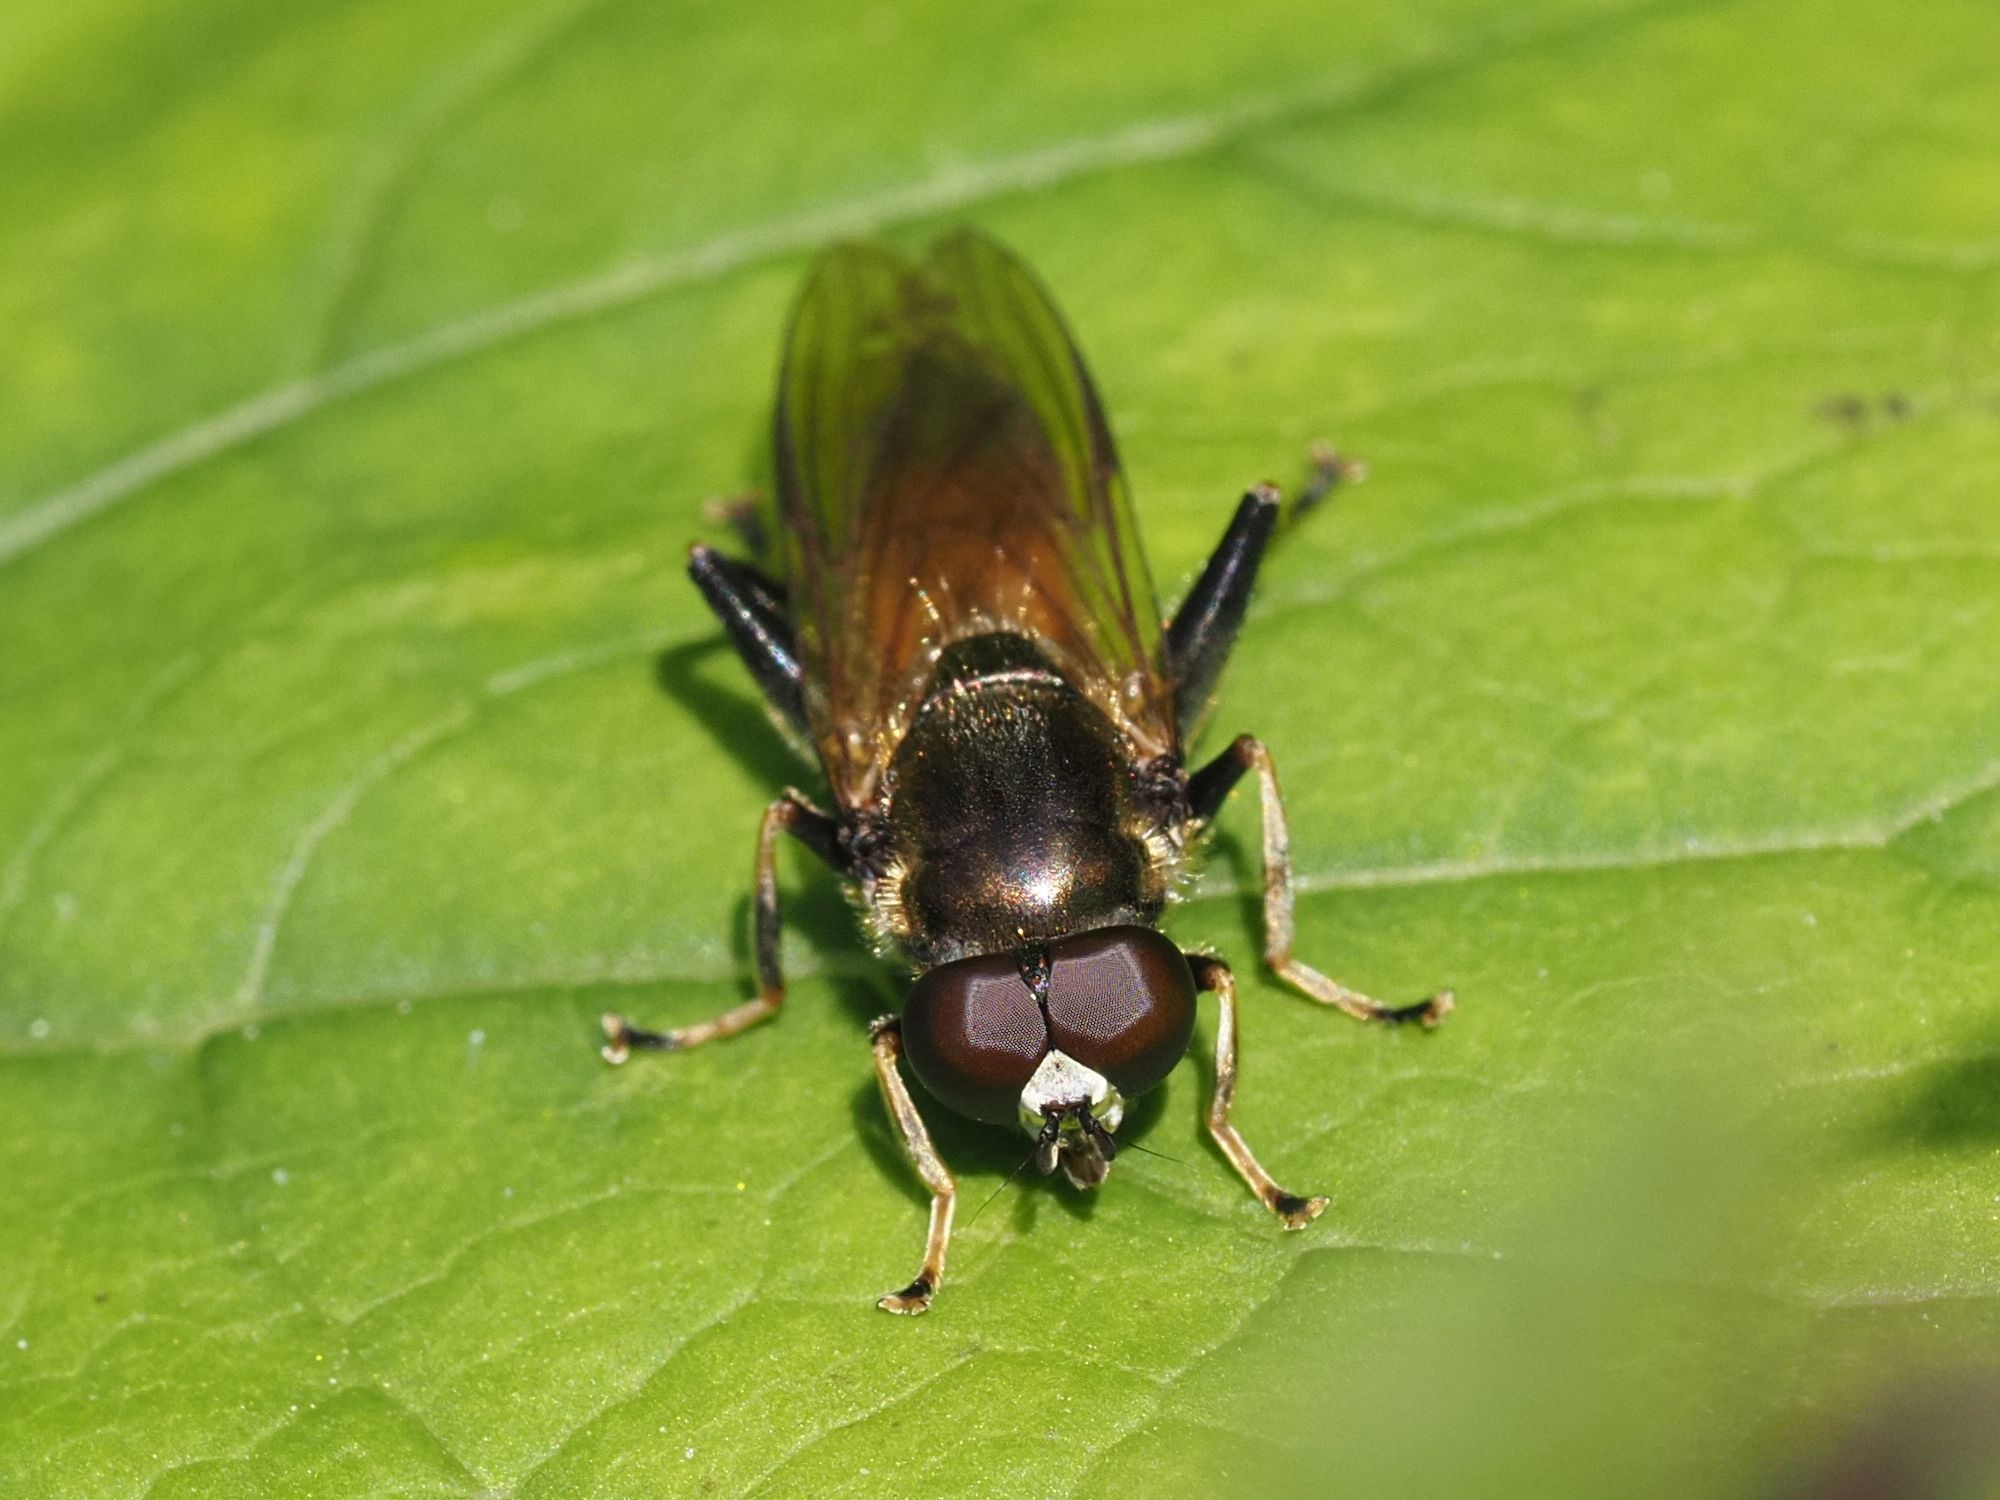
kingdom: Animalia
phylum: Arthropoda
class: Insecta
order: Diptera
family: Syrphidae
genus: Xylota
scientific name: Xylota segnis
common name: Brown-toed forest fly
